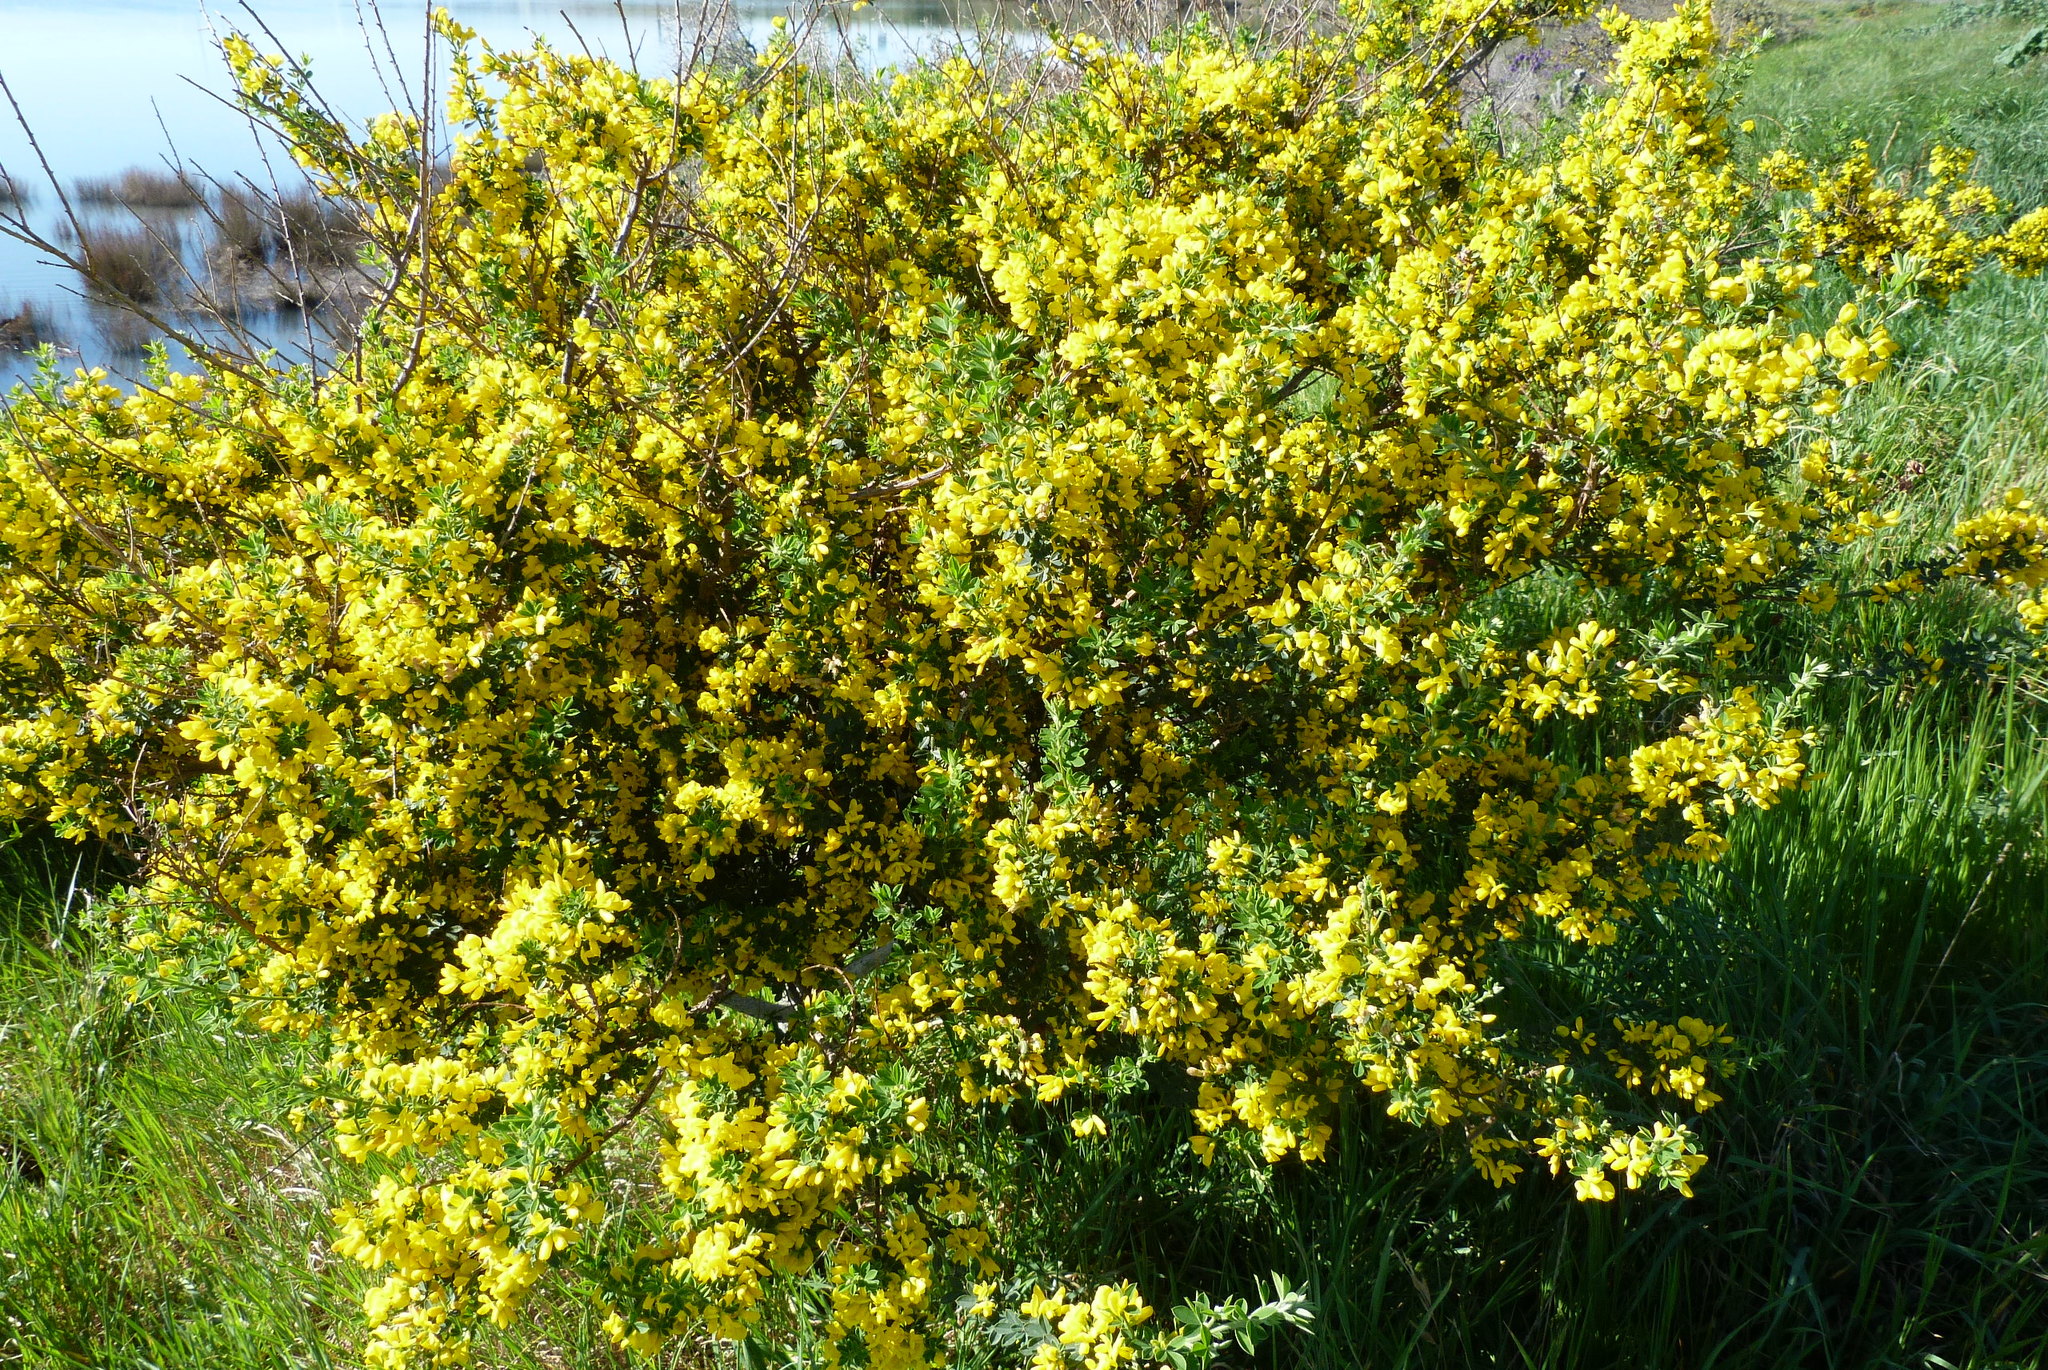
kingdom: Plantae
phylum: Tracheophyta
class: Magnoliopsida
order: Fabales
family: Fabaceae
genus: Genista
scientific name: Genista monspessulana
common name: Montpellier broom
